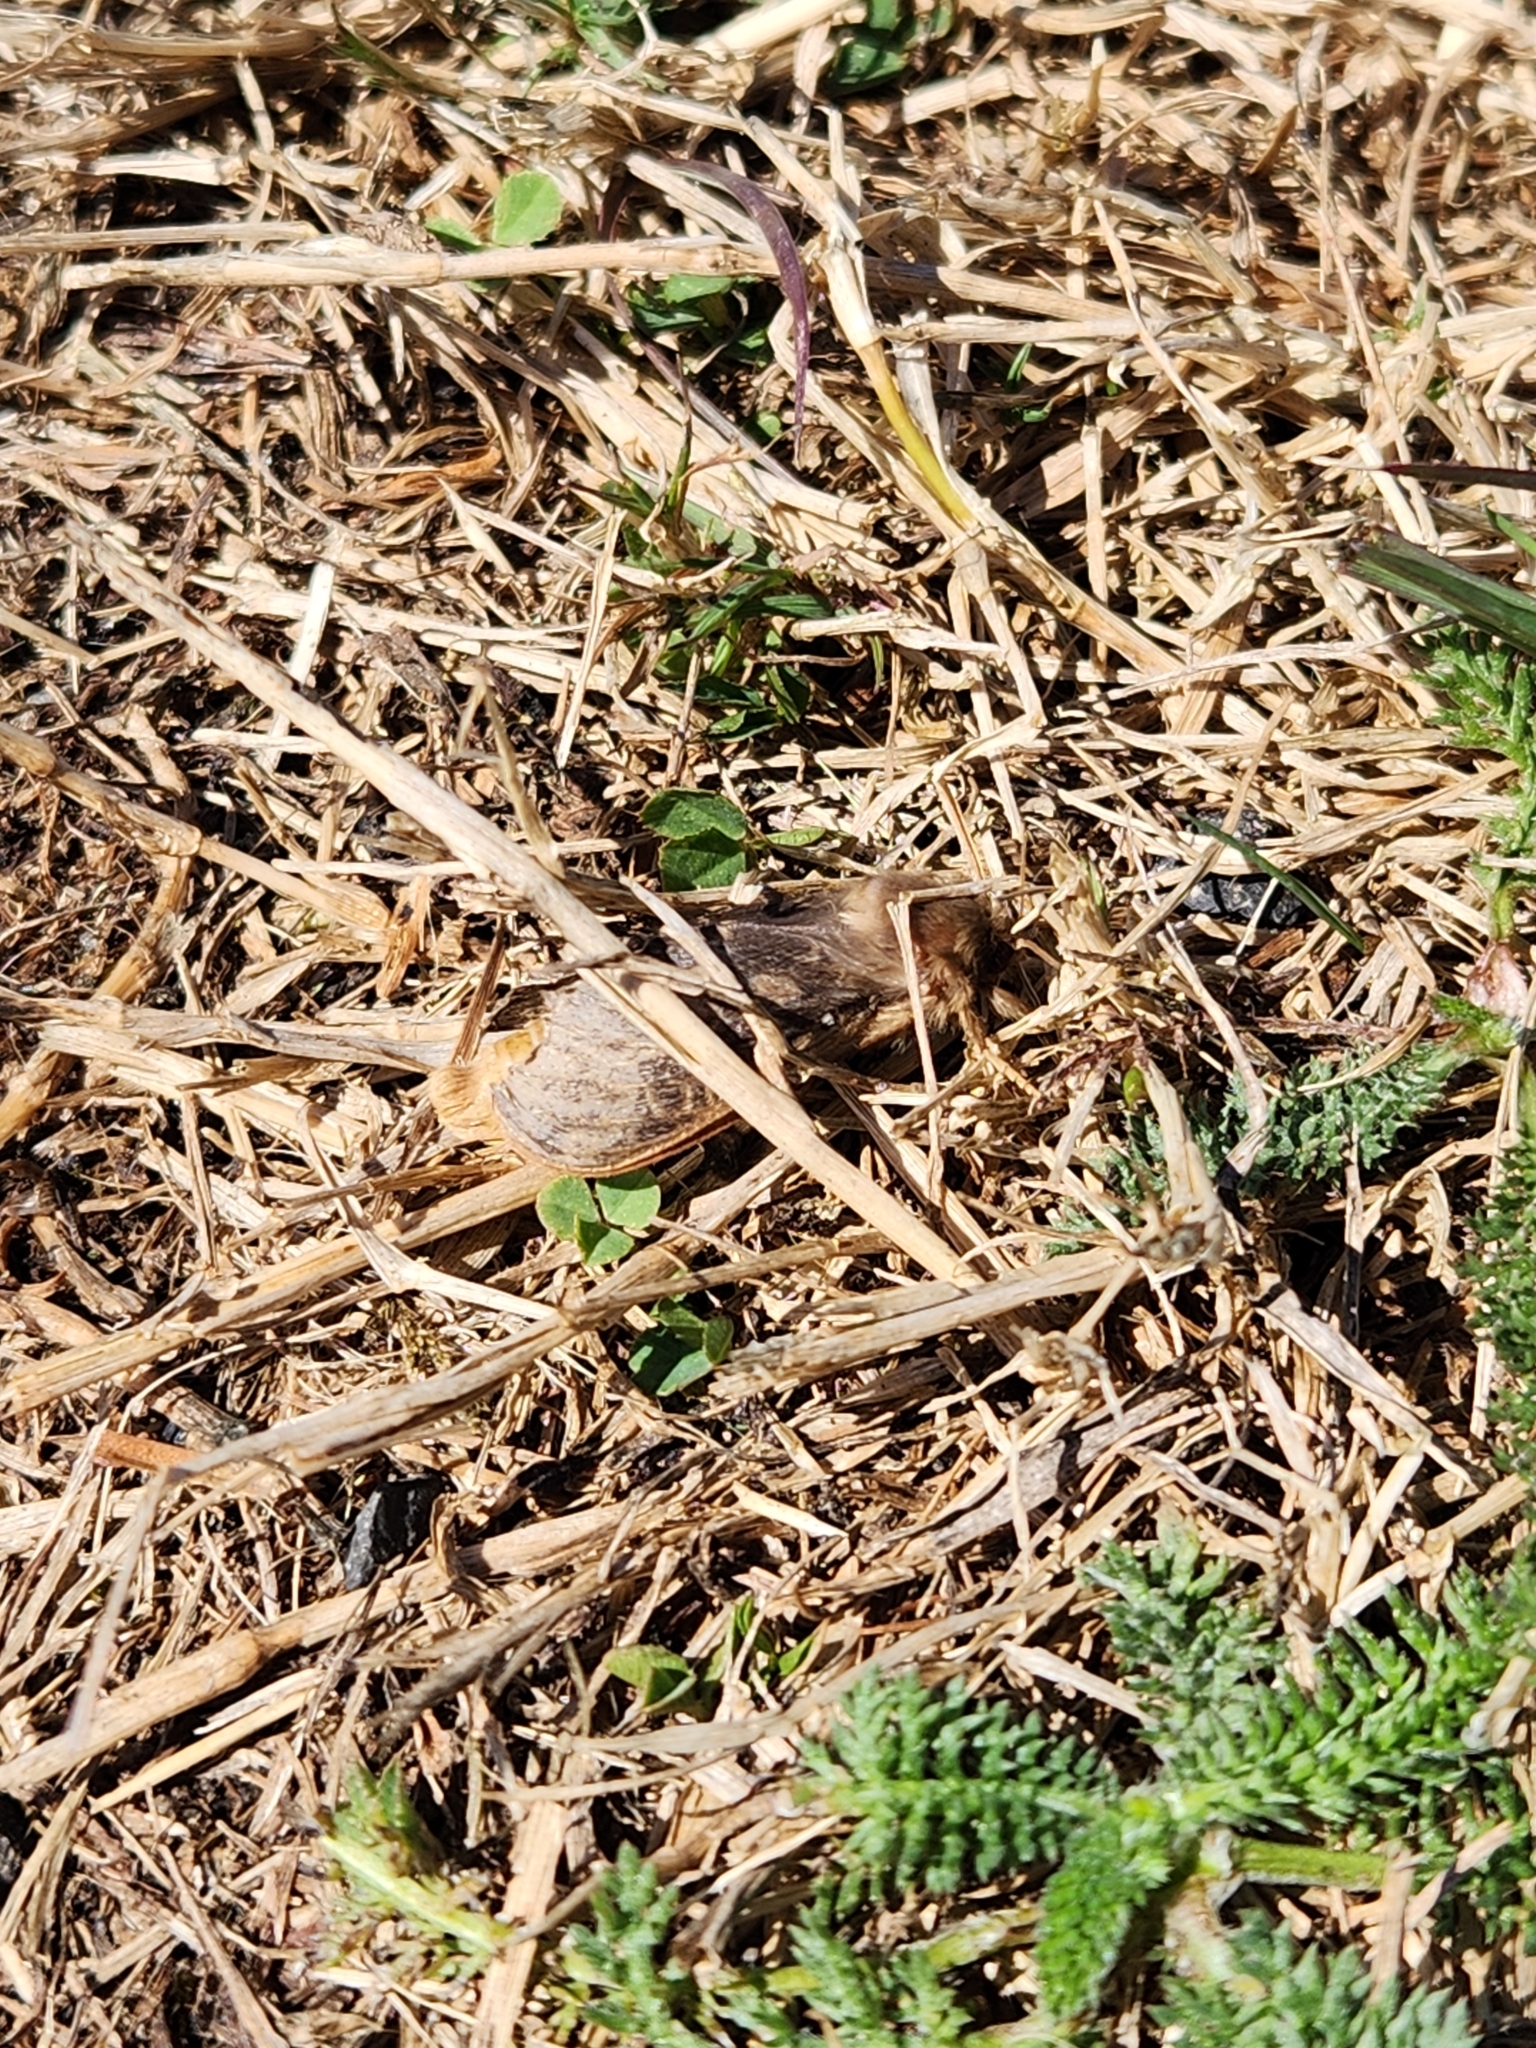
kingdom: Animalia
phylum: Arthropoda
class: Insecta
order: Lepidoptera
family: Hepialidae
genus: Wiseana
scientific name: Wiseana cervinata
